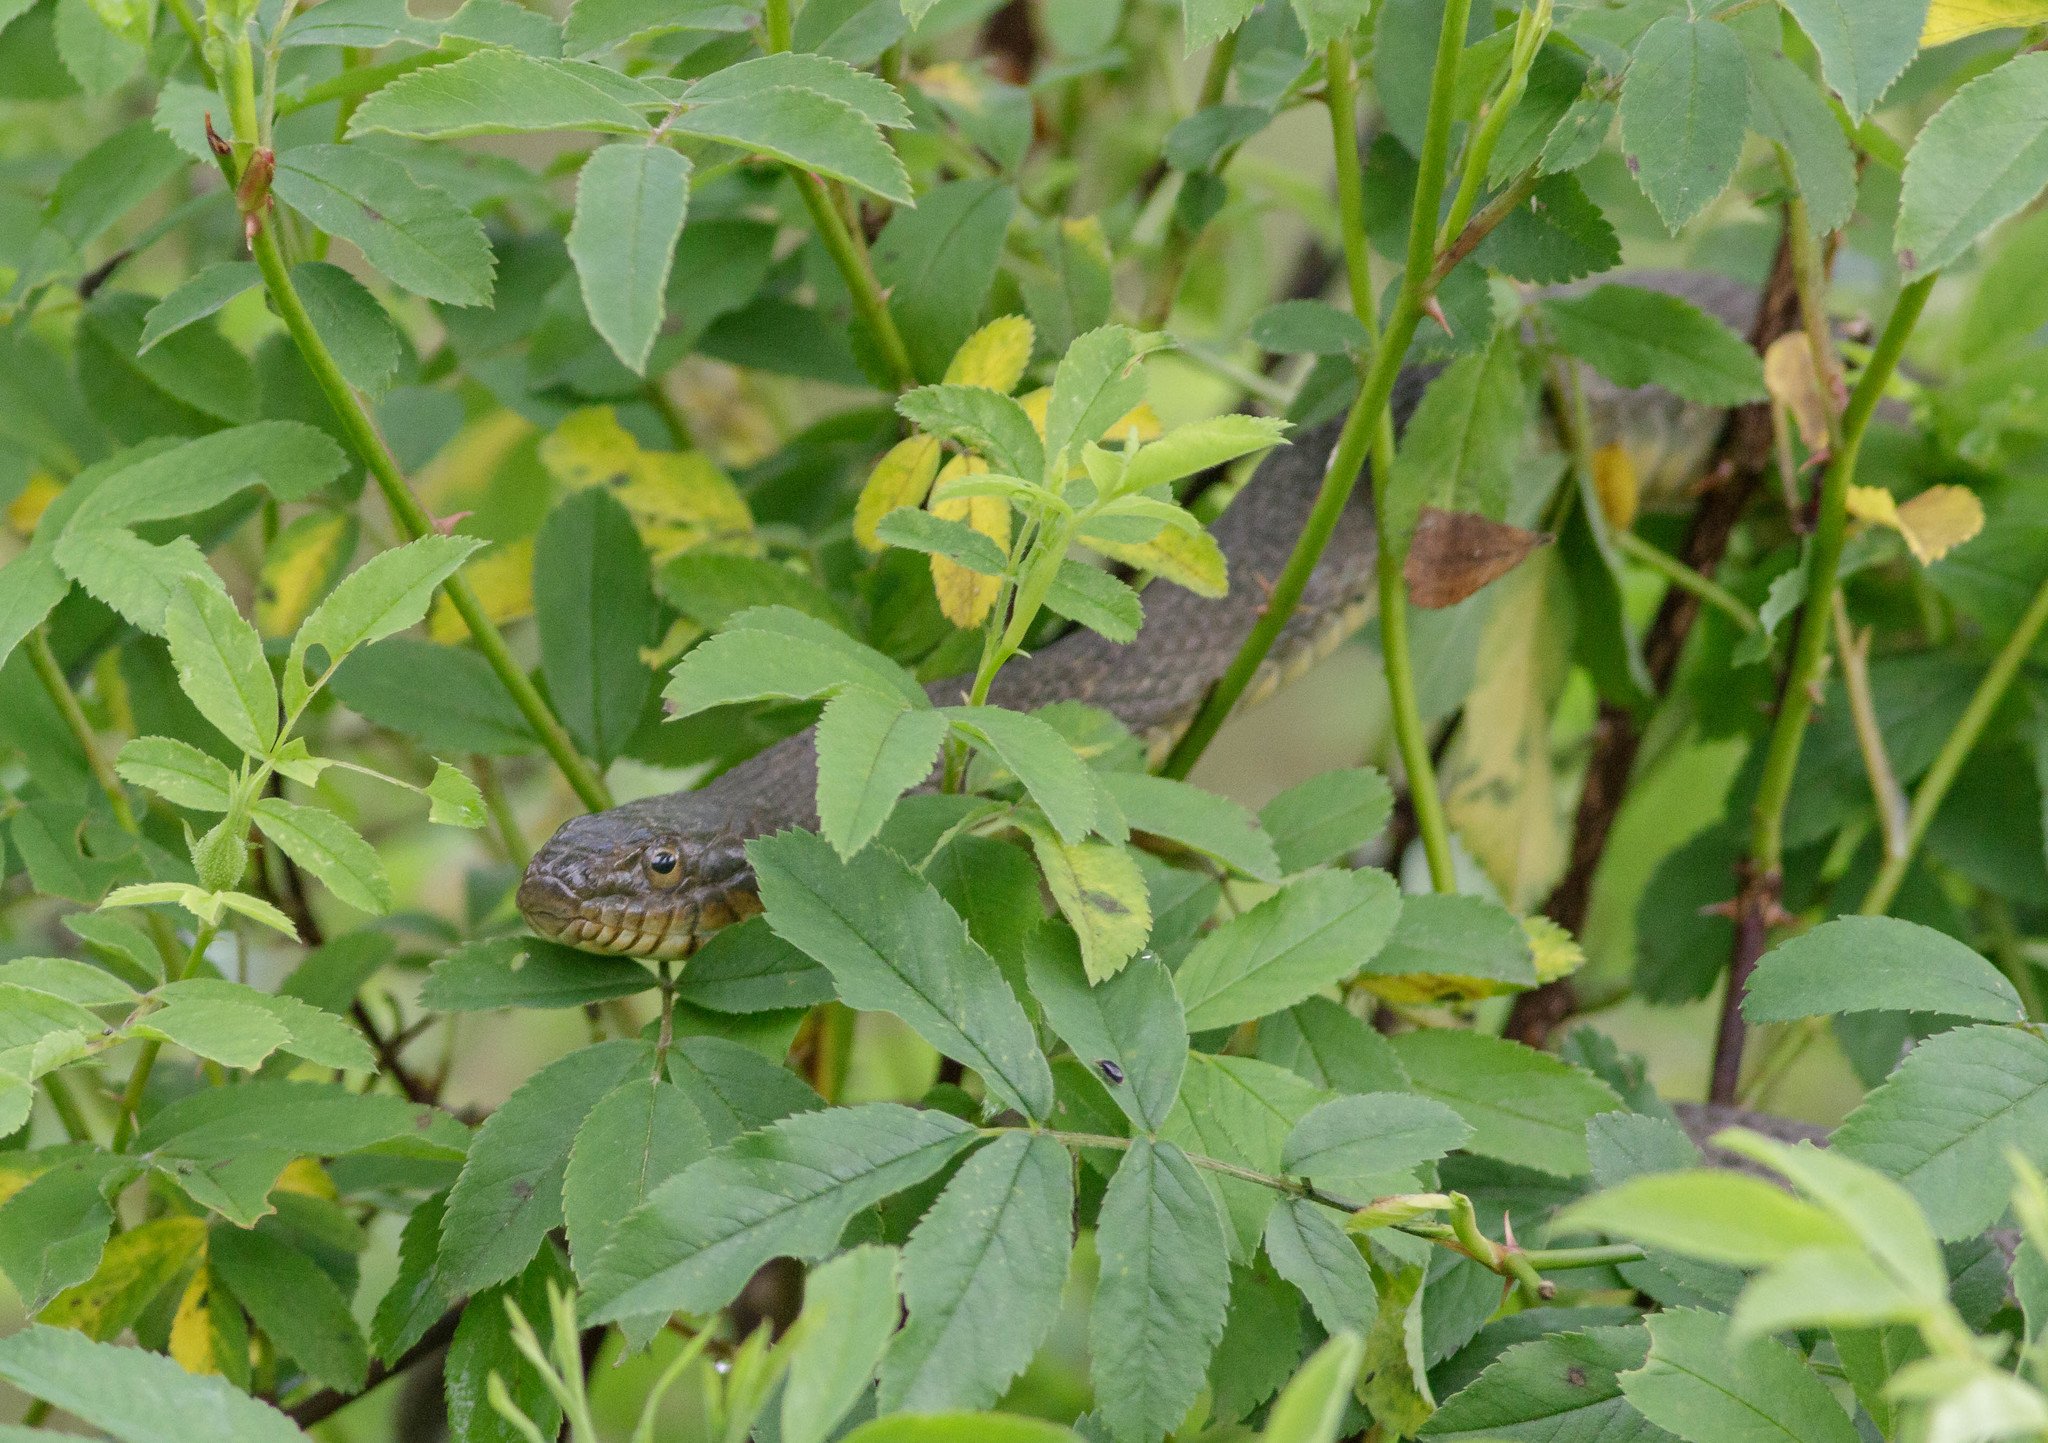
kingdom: Animalia
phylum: Chordata
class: Squamata
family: Colubridae
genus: Nerodia
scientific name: Nerodia sipedon
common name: Northern water snake
